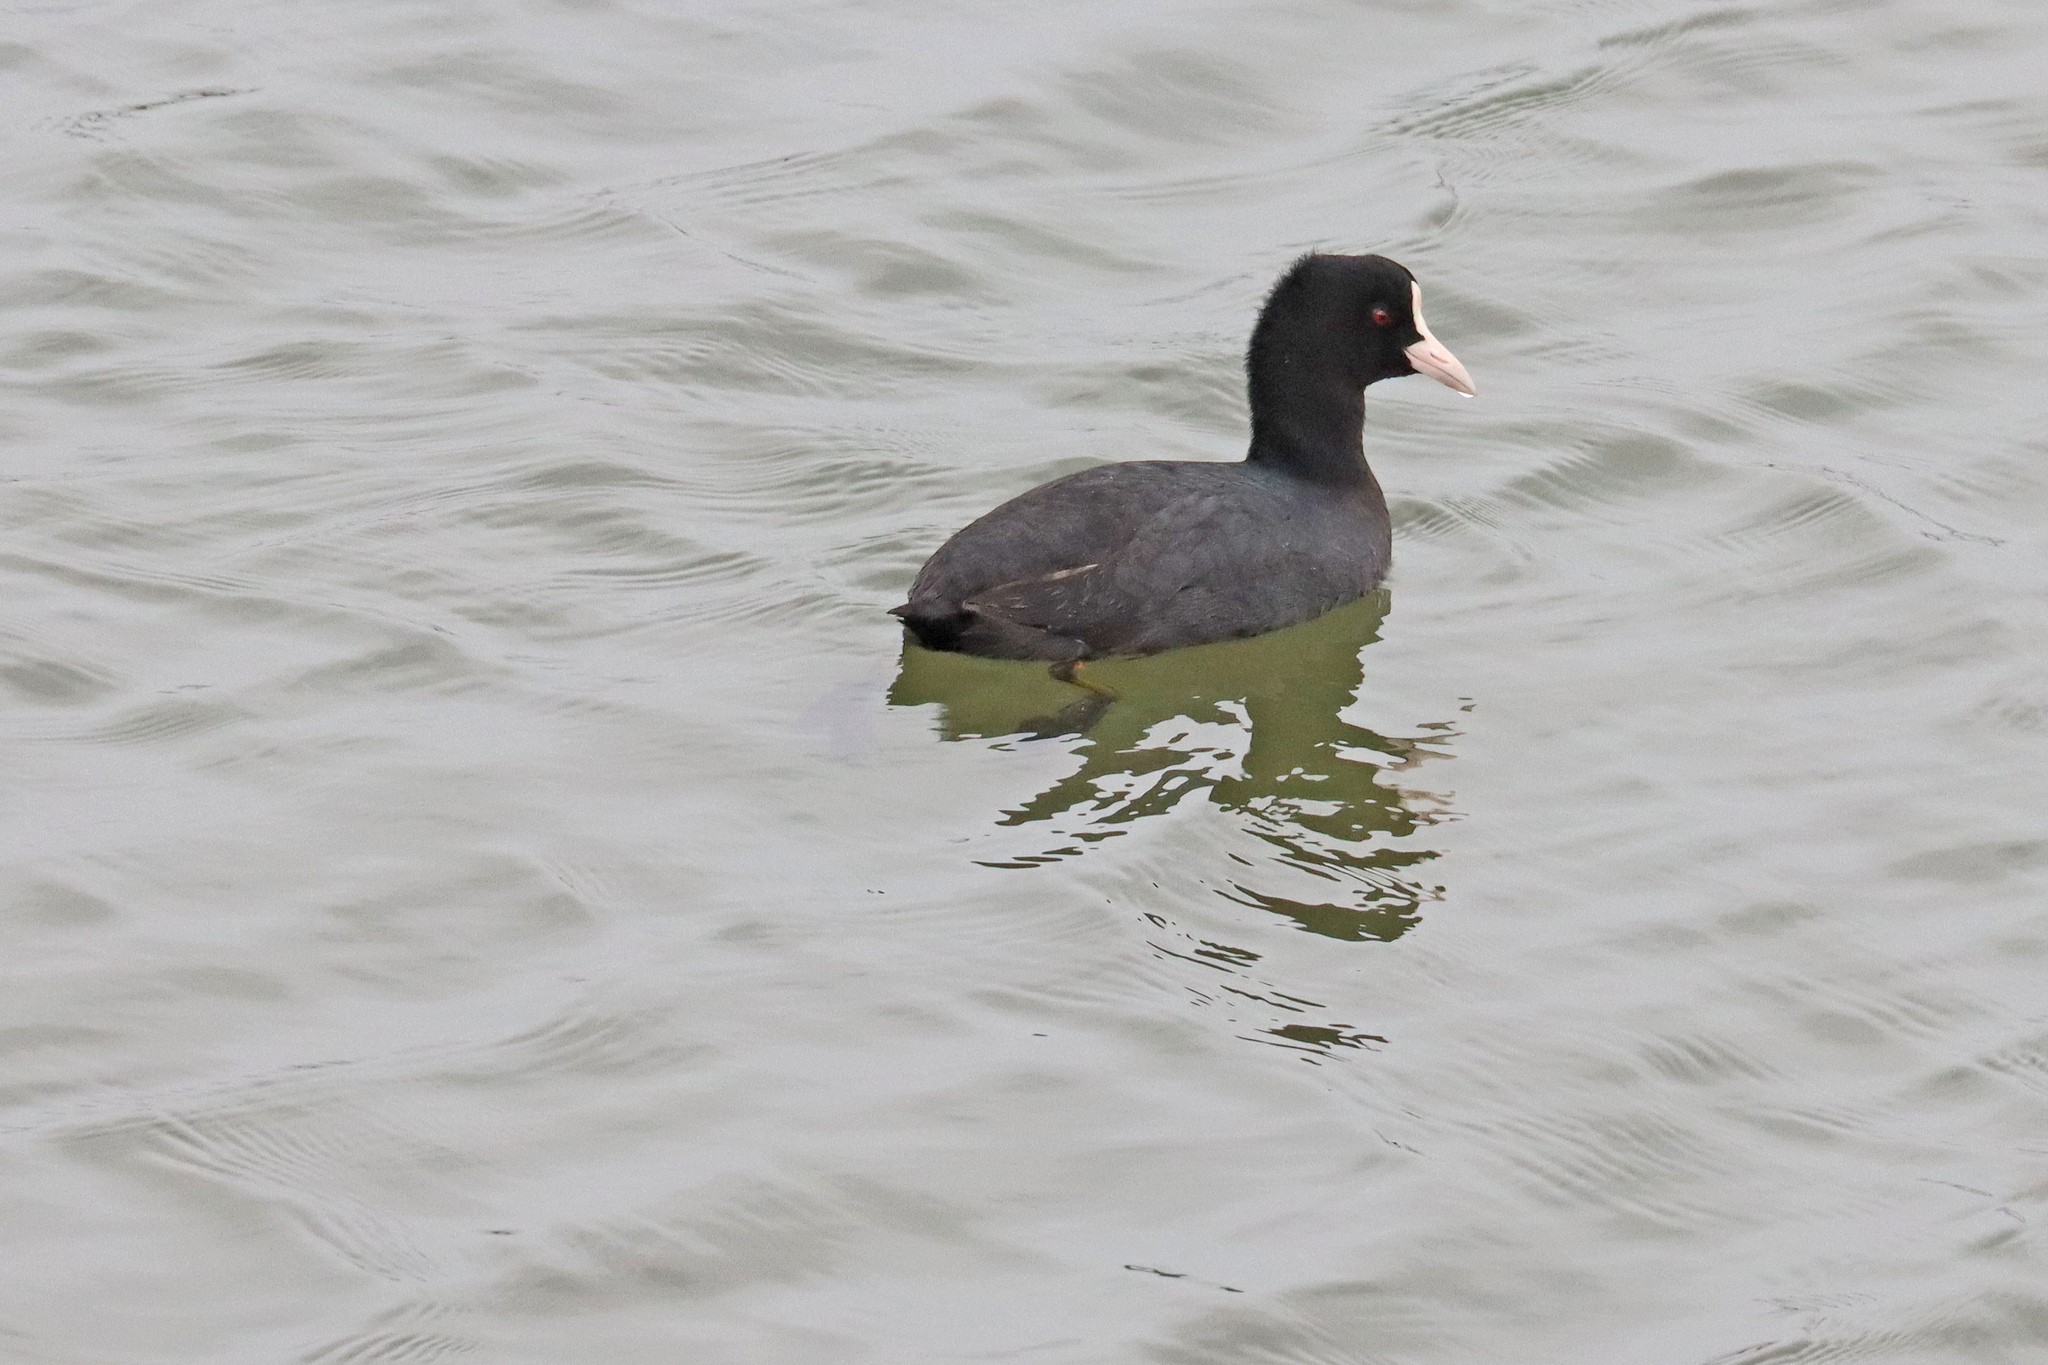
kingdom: Animalia
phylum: Chordata
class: Aves
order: Gruiformes
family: Rallidae
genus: Fulica
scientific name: Fulica atra
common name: Eurasian coot
